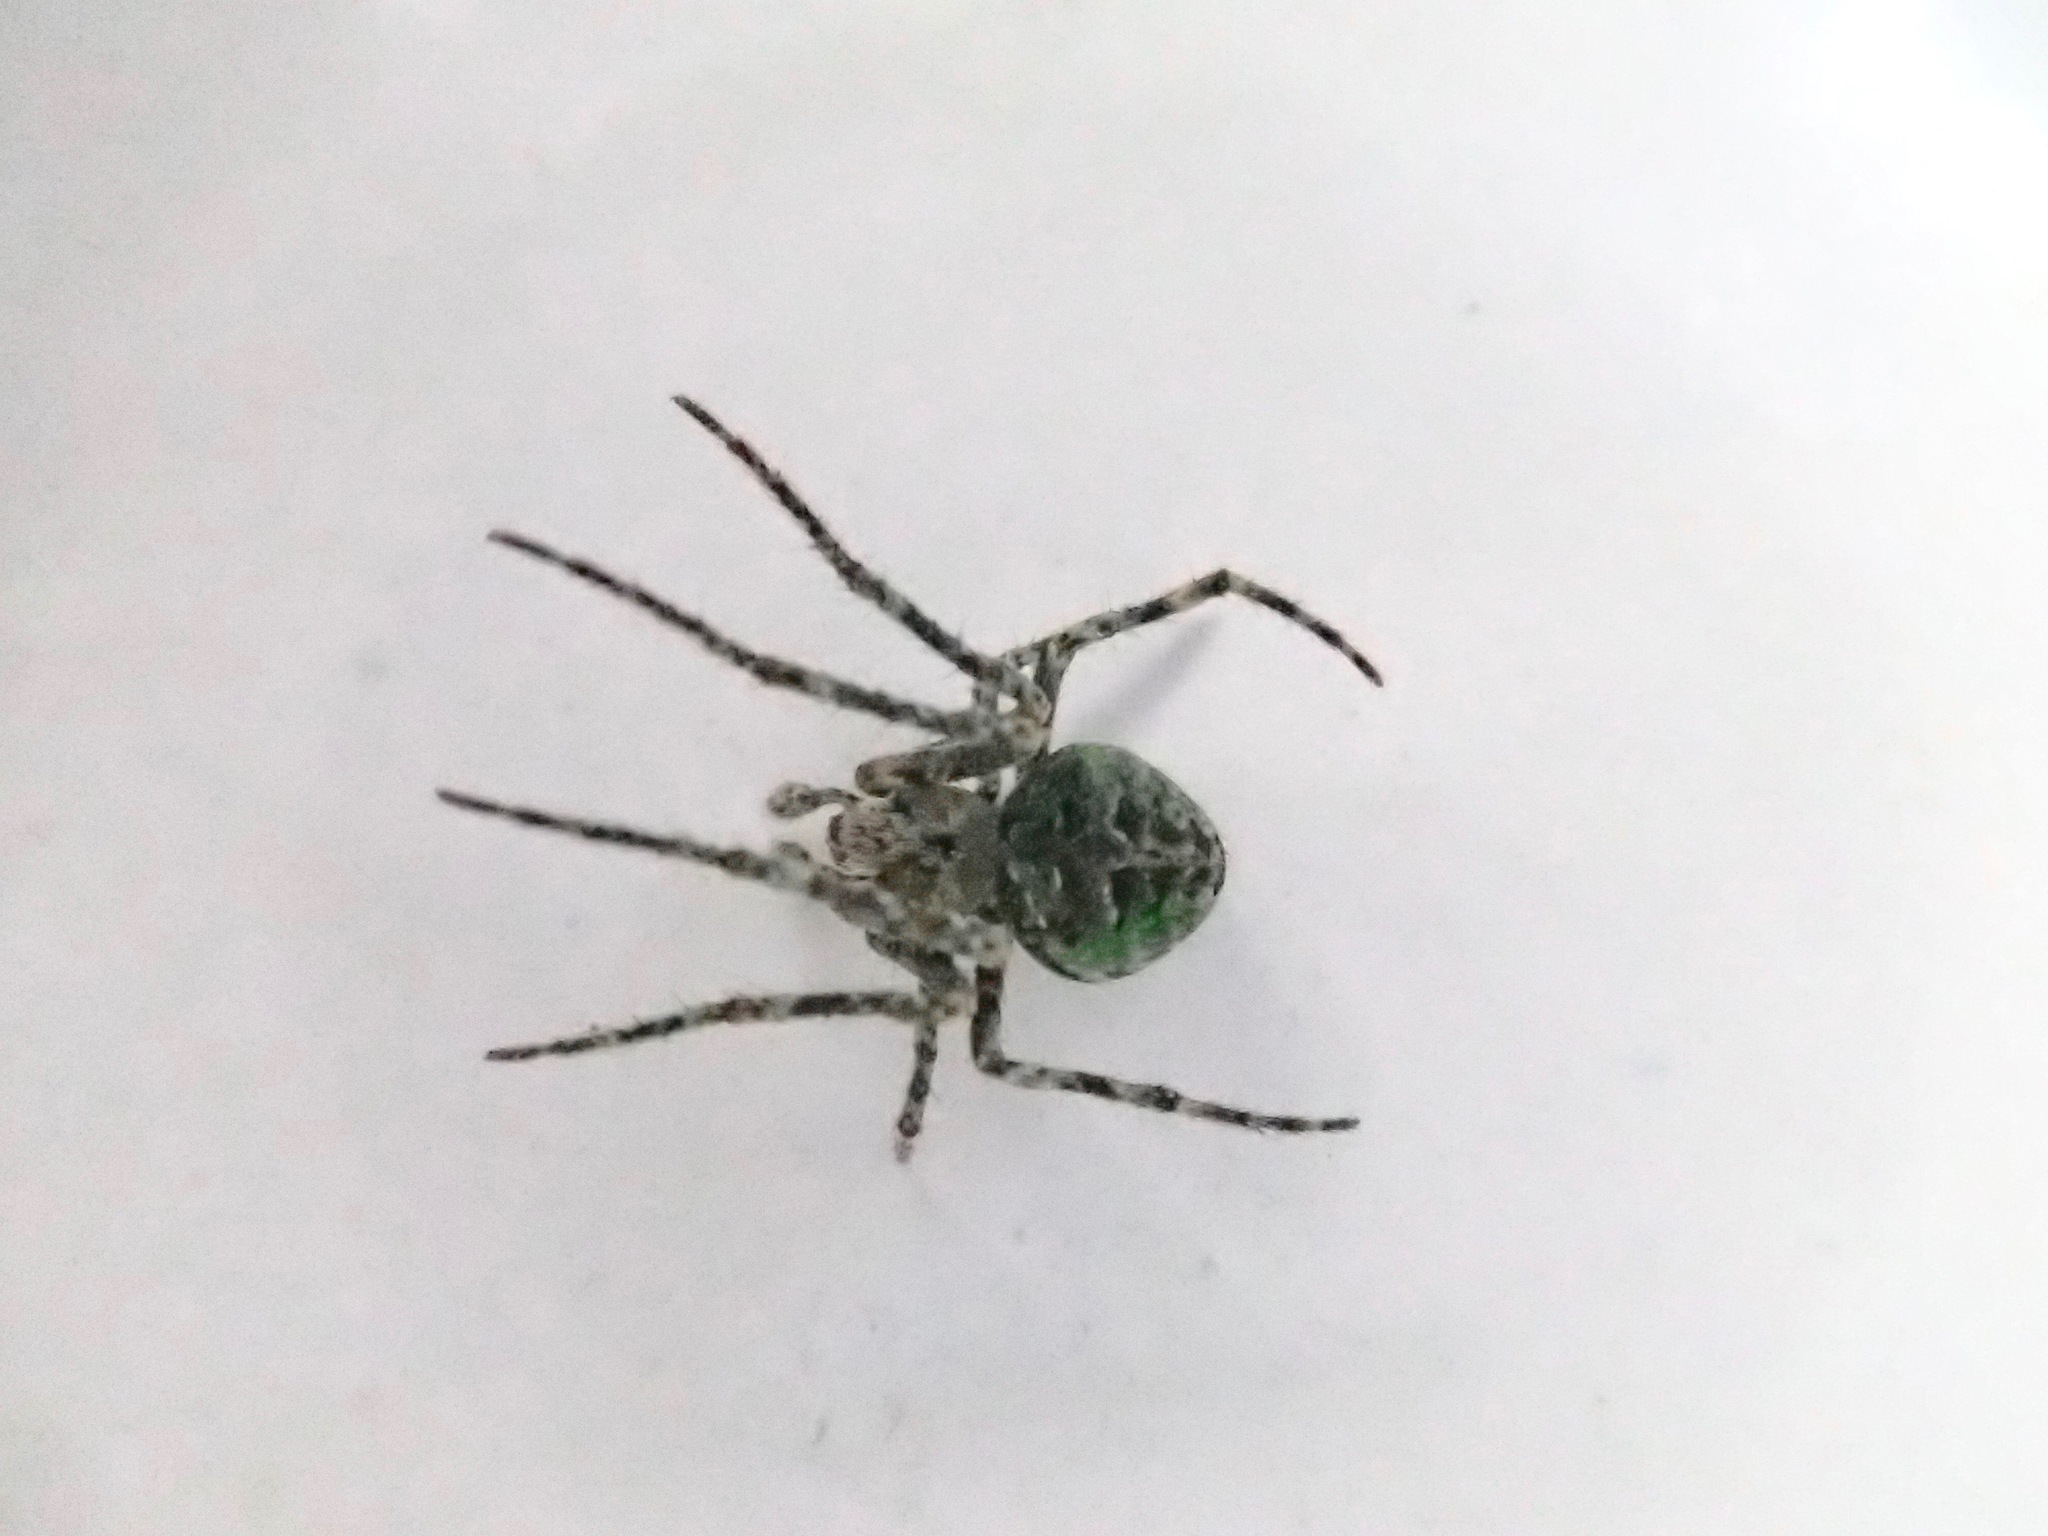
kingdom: Animalia
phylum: Arthropoda
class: Arachnida
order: Araneae
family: Araneidae
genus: Cryptaranea
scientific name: Cryptaranea
